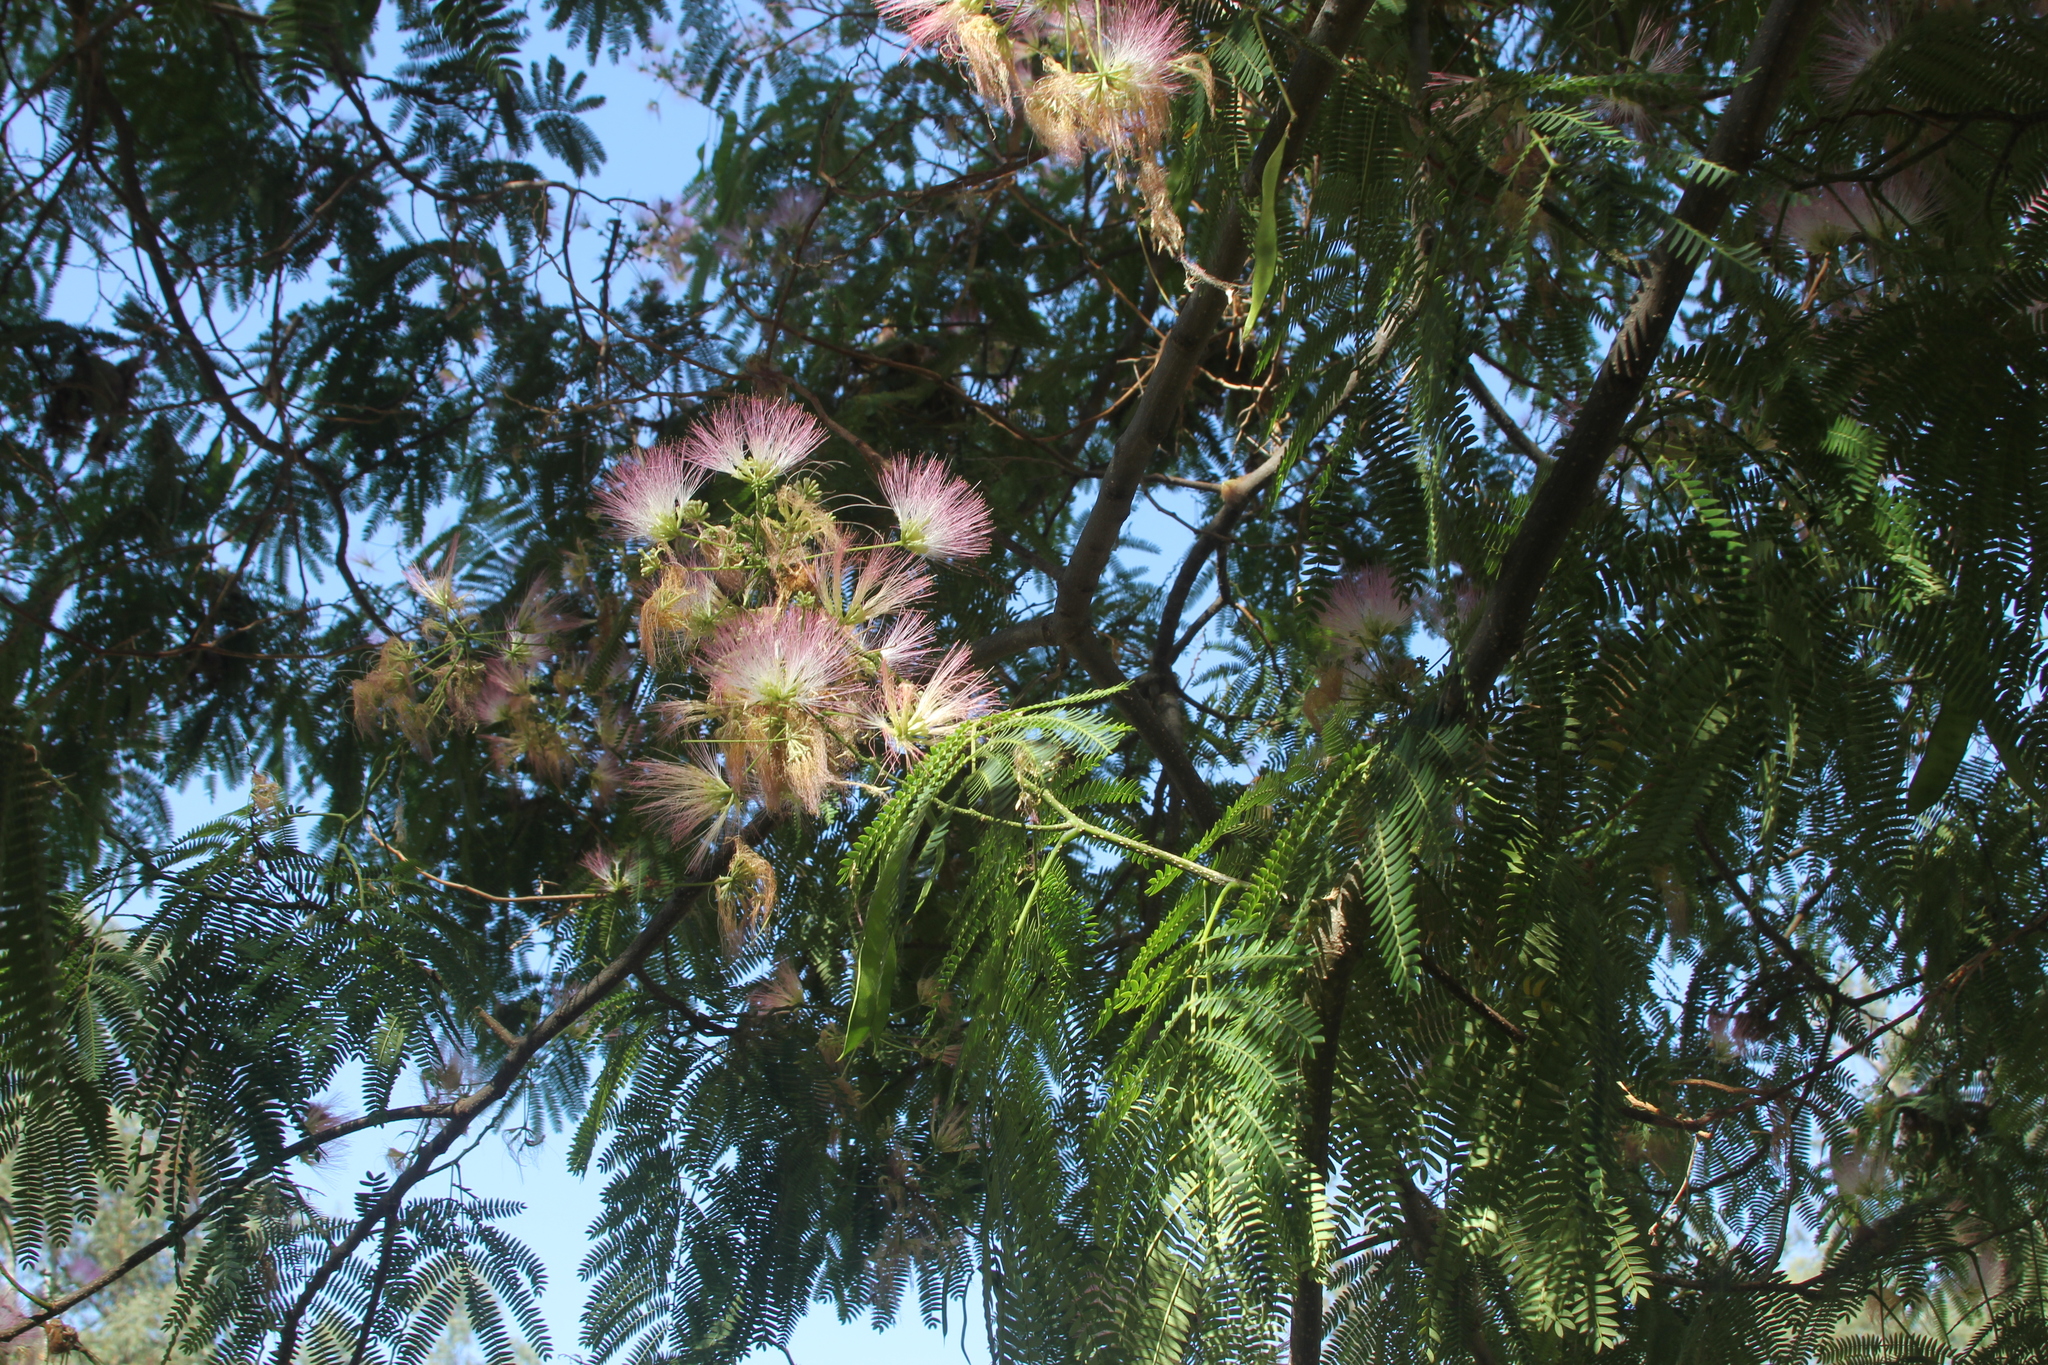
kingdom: Plantae
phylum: Tracheophyta
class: Magnoliopsida
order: Fabales
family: Fabaceae
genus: Albizia
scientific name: Albizia julibrissin
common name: Silktree
